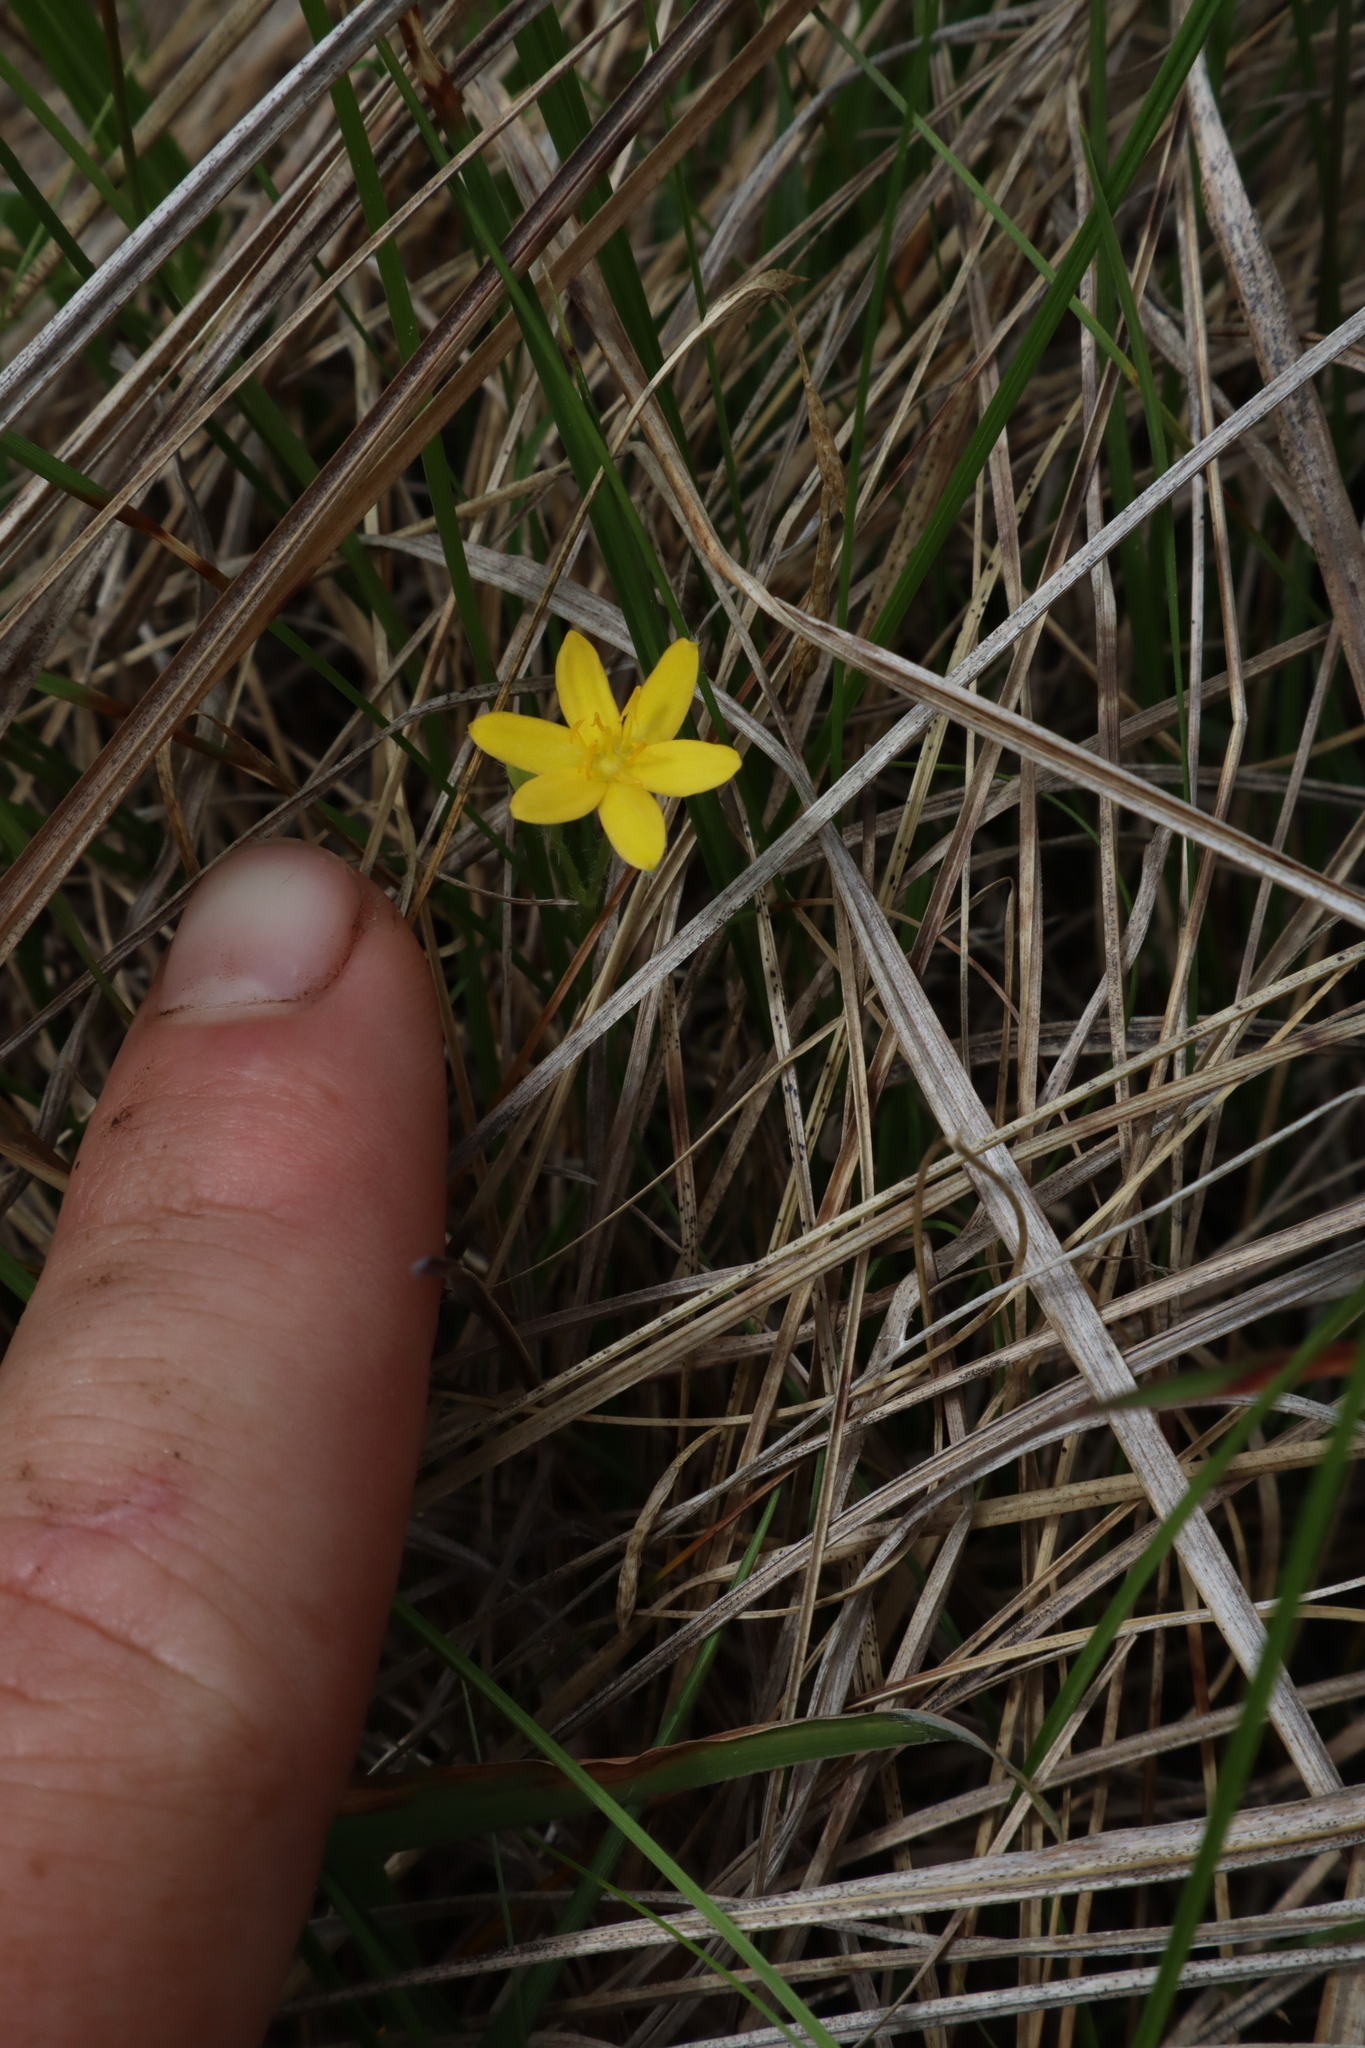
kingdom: Plantae
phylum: Tracheophyta
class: Liliopsida
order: Asparagales
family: Hypoxidaceae
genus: Hypoxis
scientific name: Hypoxis hirsuta
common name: Common goldstar
